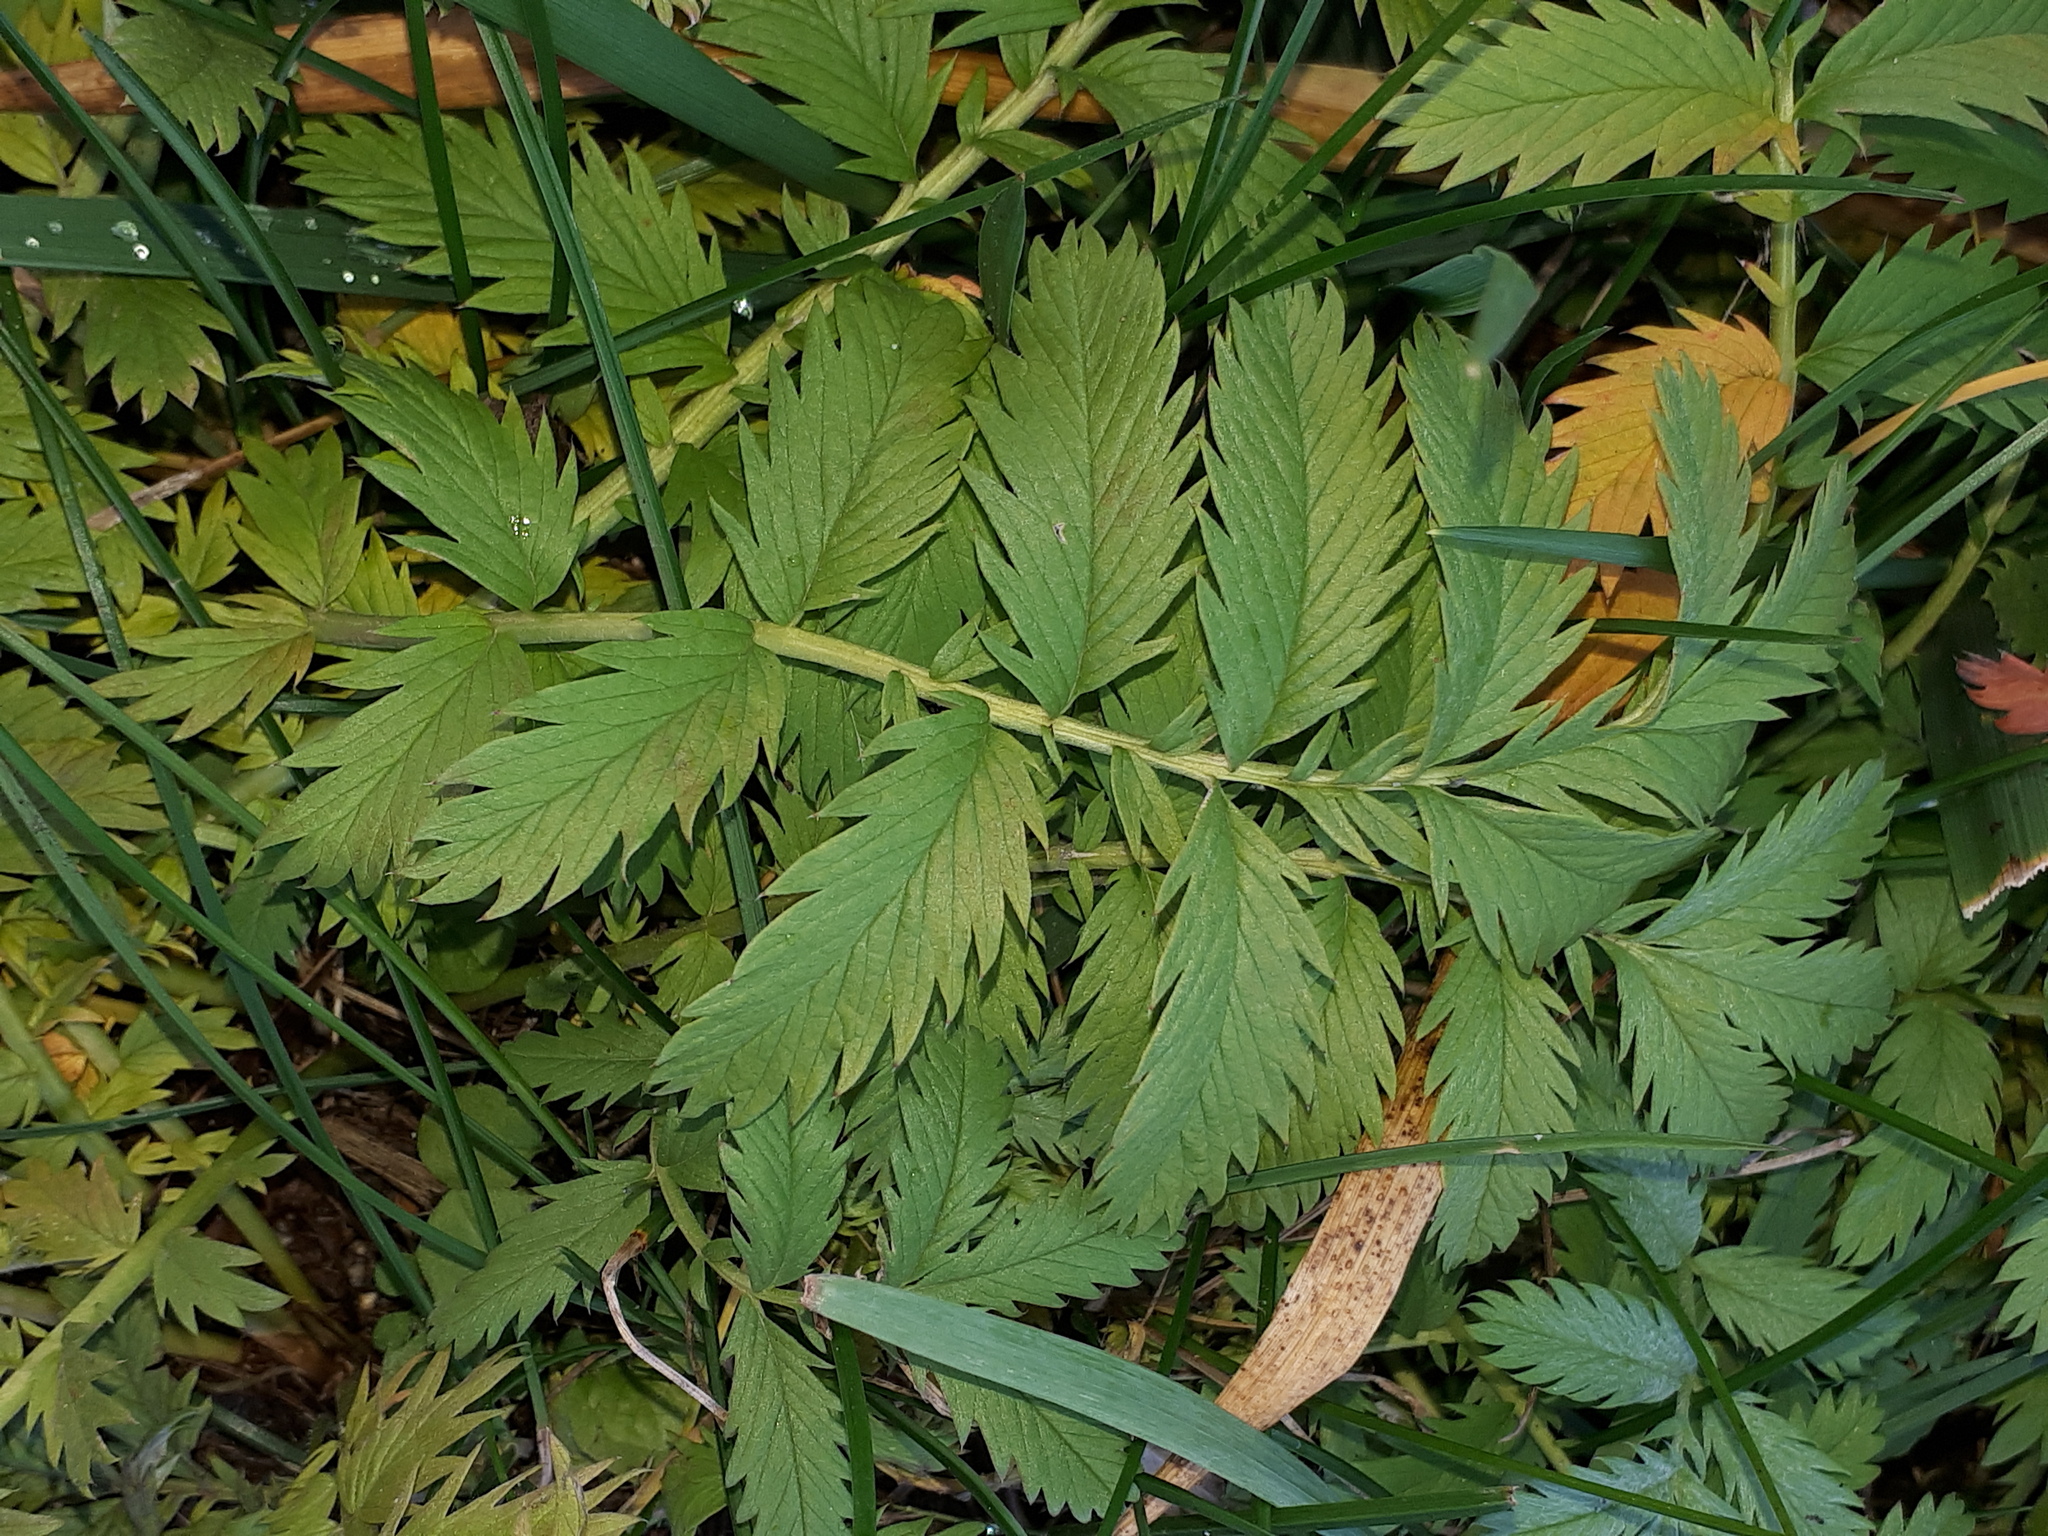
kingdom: Plantae
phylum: Tracheophyta
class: Magnoliopsida
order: Rosales
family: Rosaceae
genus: Argentina
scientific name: Argentina anserina
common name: Common silverweed
